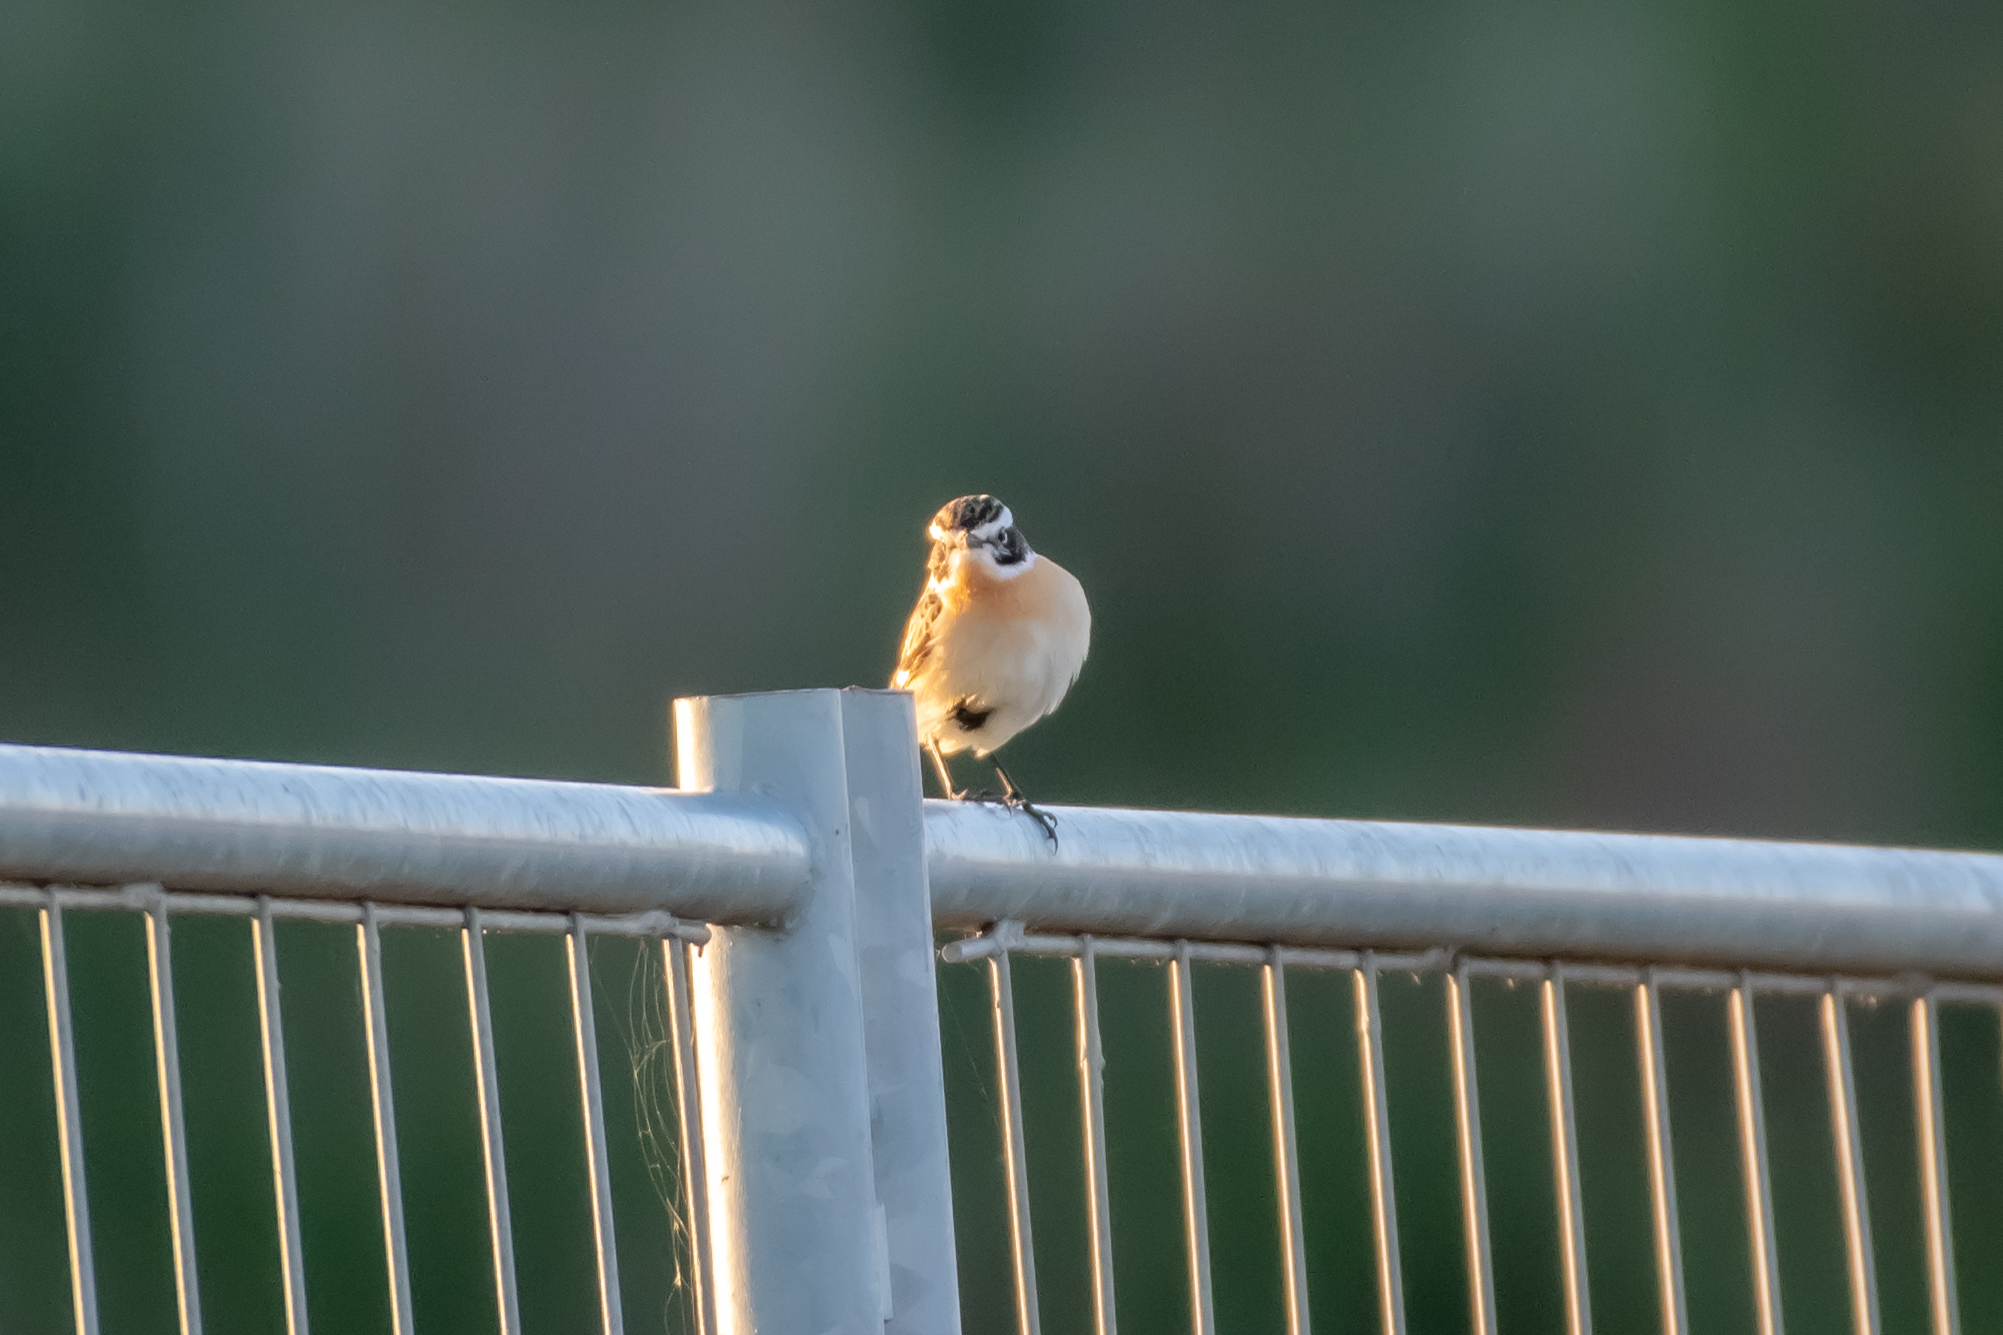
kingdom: Animalia
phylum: Chordata
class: Aves
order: Passeriformes
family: Muscicapidae
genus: Saxicola
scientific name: Saxicola rubetra
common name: Whinchat
